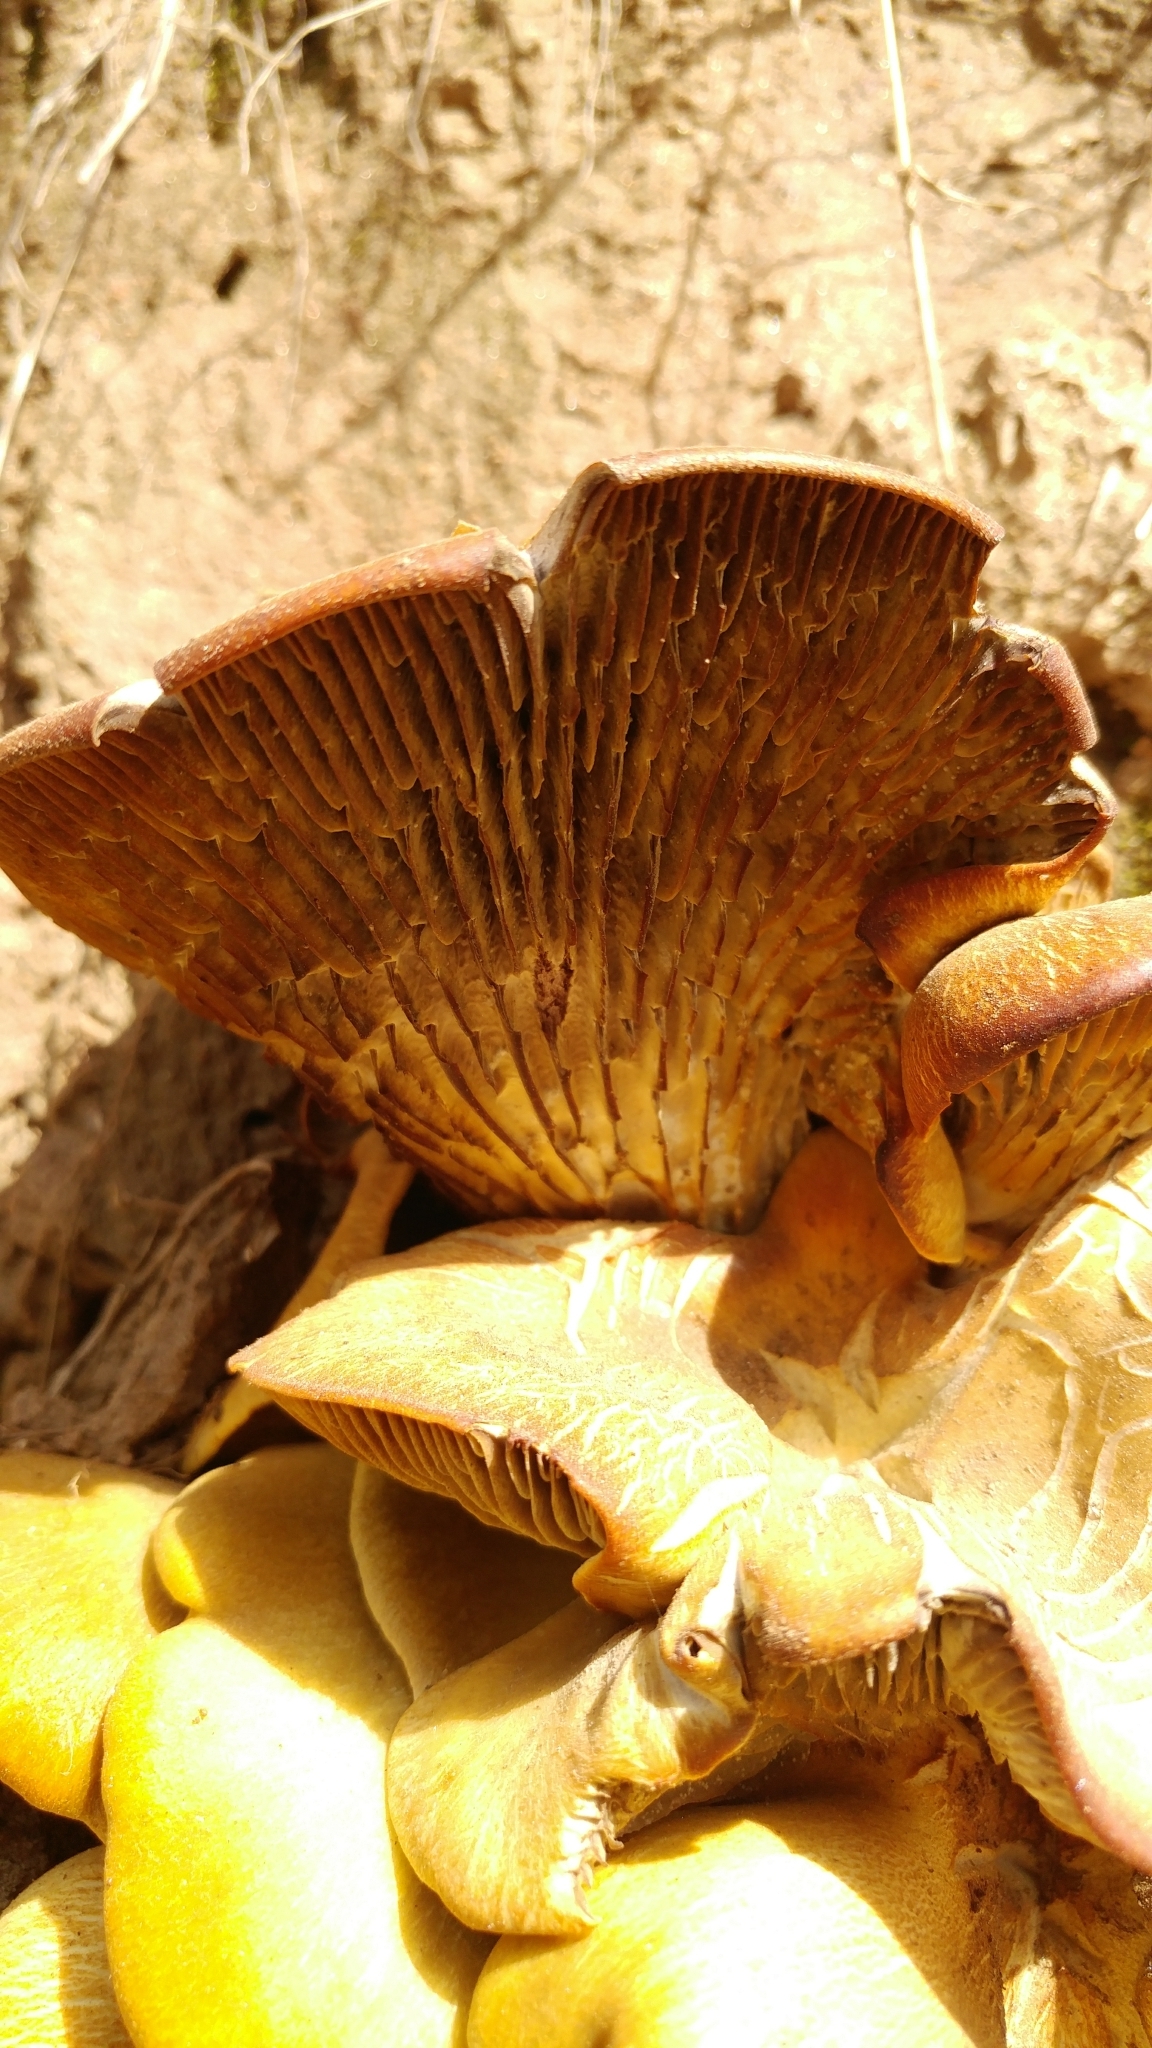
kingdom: Fungi
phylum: Basidiomycota
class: Agaricomycetes
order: Agaricales
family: Omphalotaceae
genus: Omphalotus
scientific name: Omphalotus olivascens
